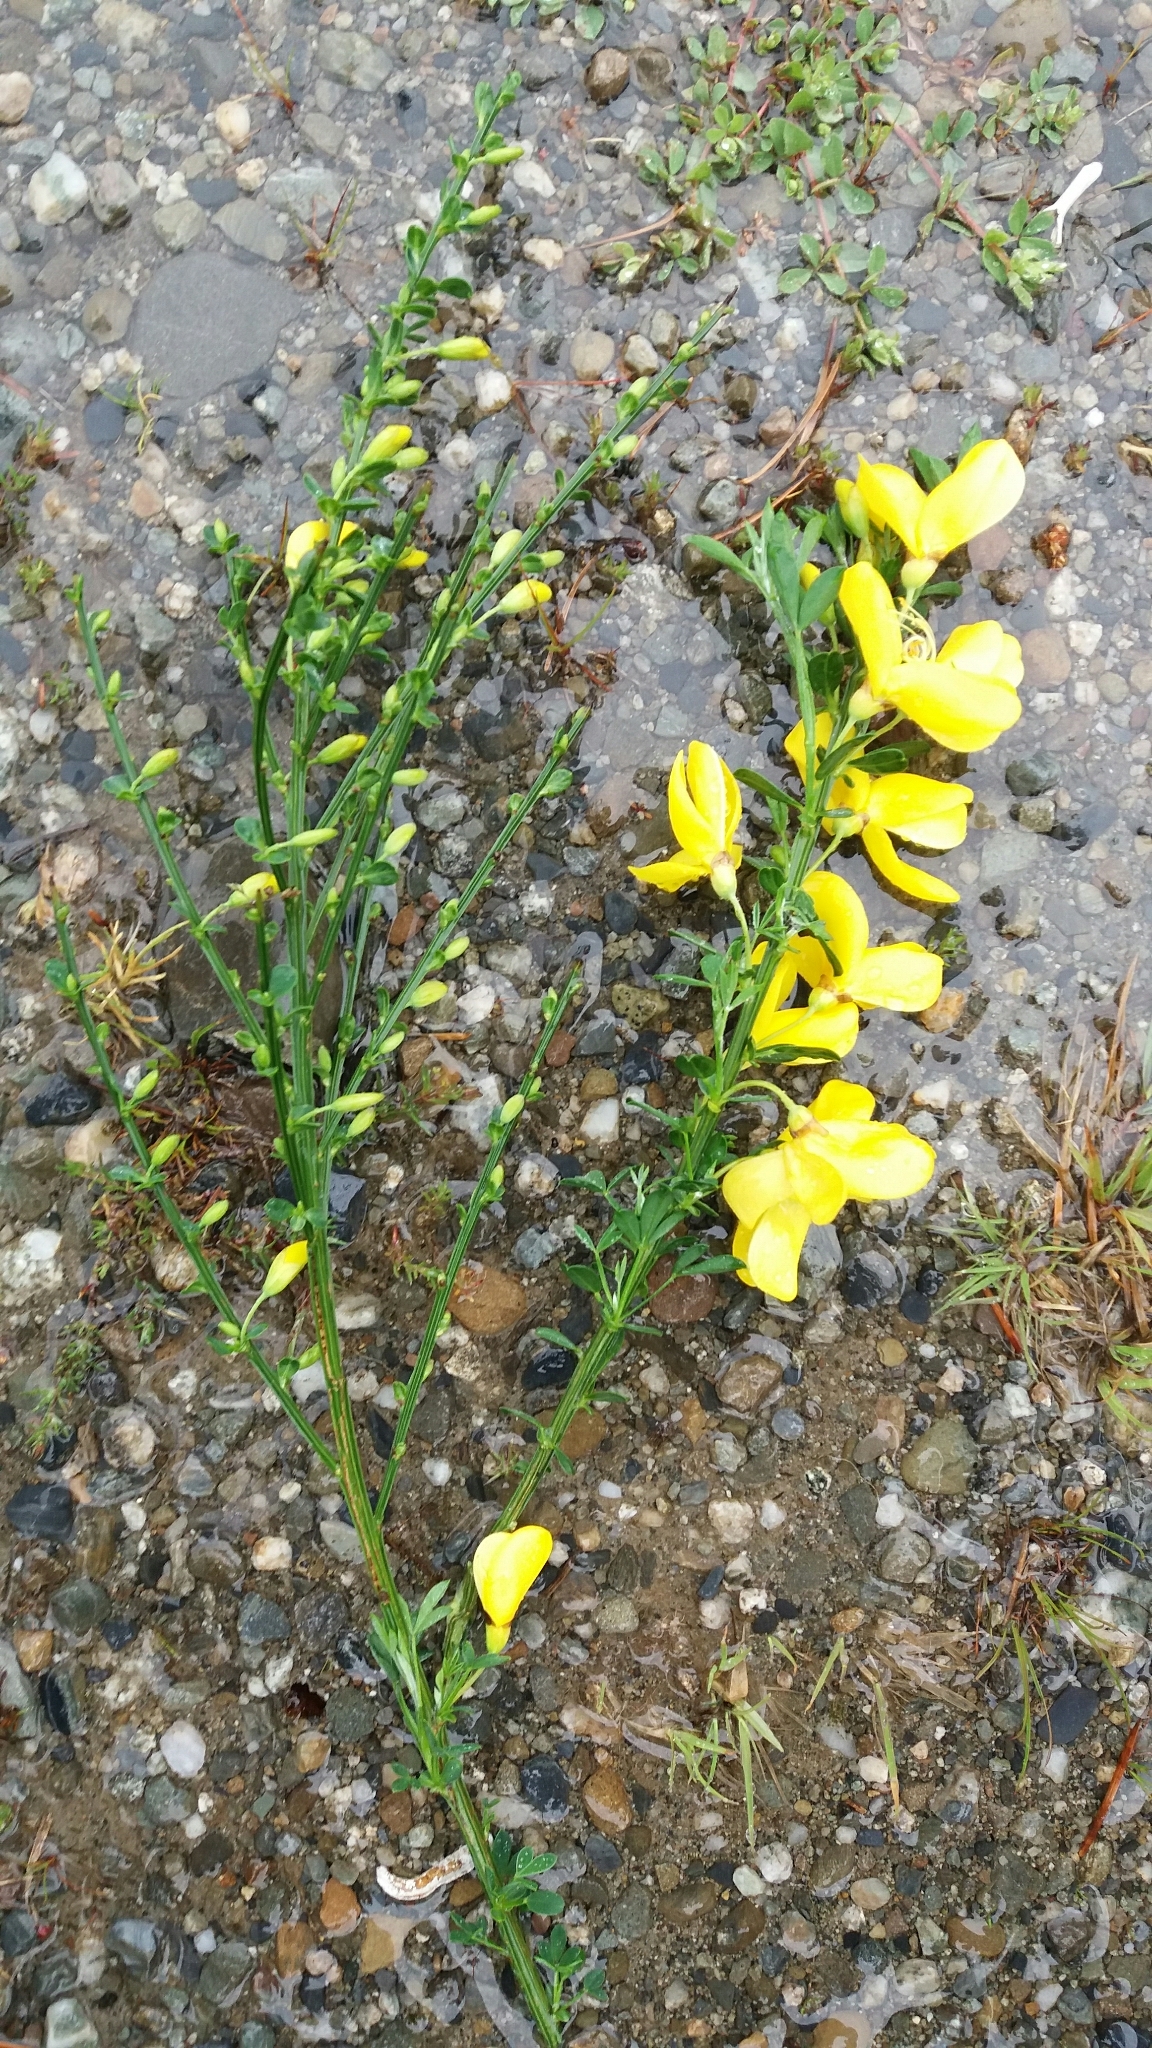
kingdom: Plantae
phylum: Tracheophyta
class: Magnoliopsida
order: Fabales
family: Fabaceae
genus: Cytisus
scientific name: Cytisus scoparius
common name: Scotch broom
